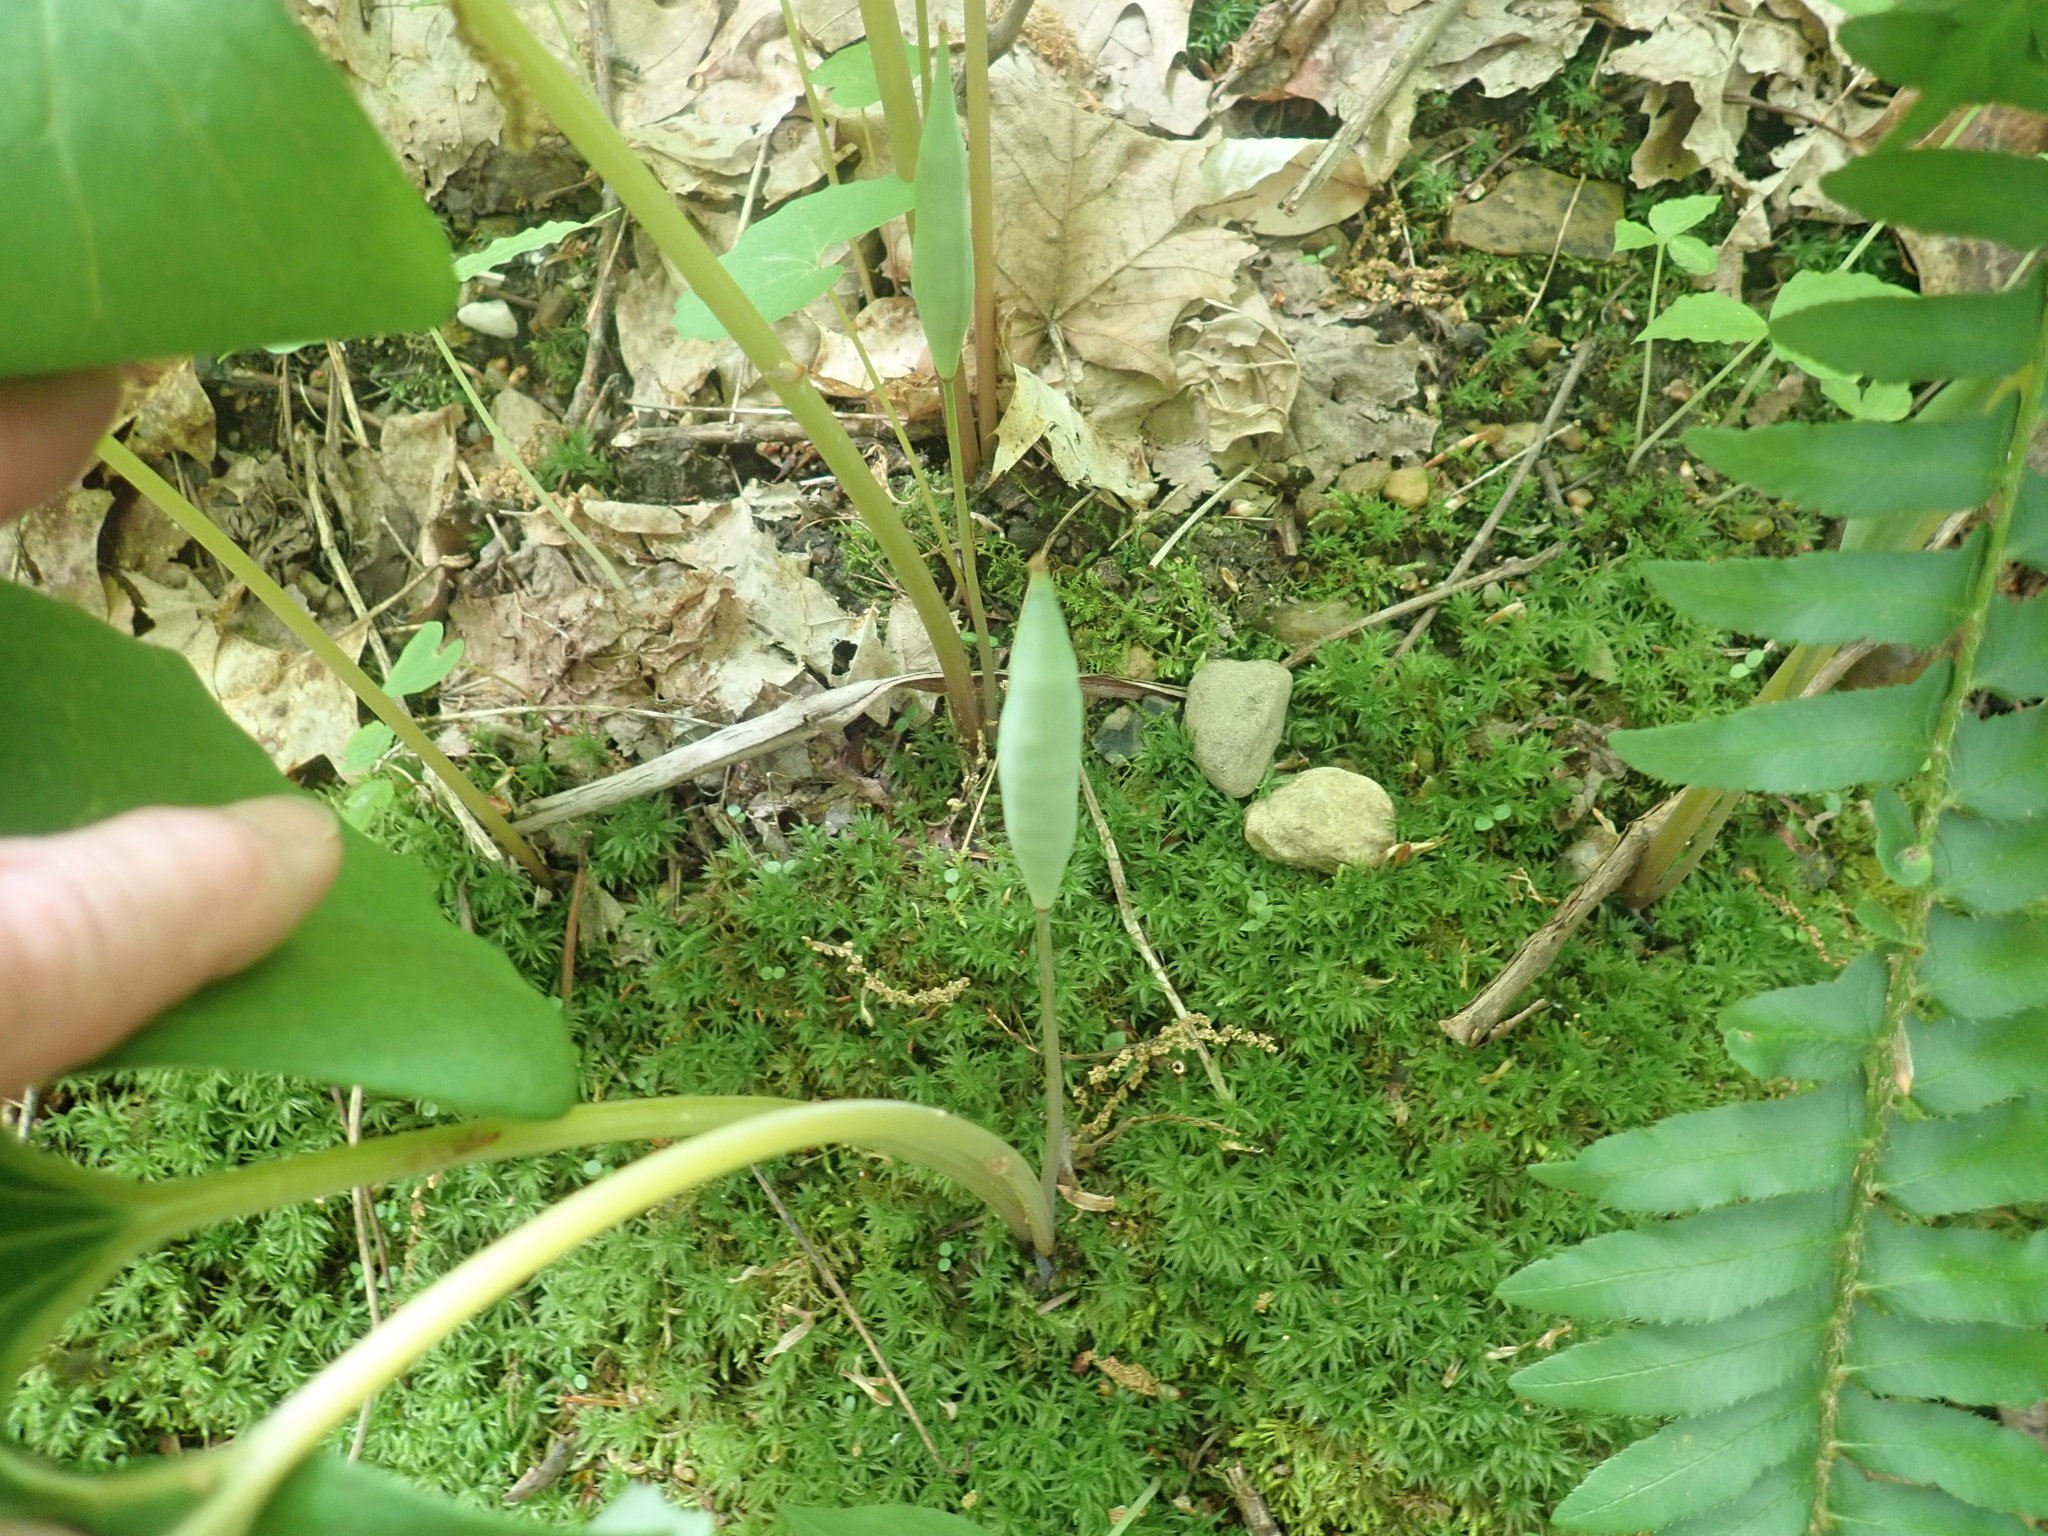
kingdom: Plantae
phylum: Tracheophyta
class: Magnoliopsida
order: Ranunculales
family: Papaveraceae
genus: Sanguinaria
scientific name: Sanguinaria canadensis
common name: Bloodroot
